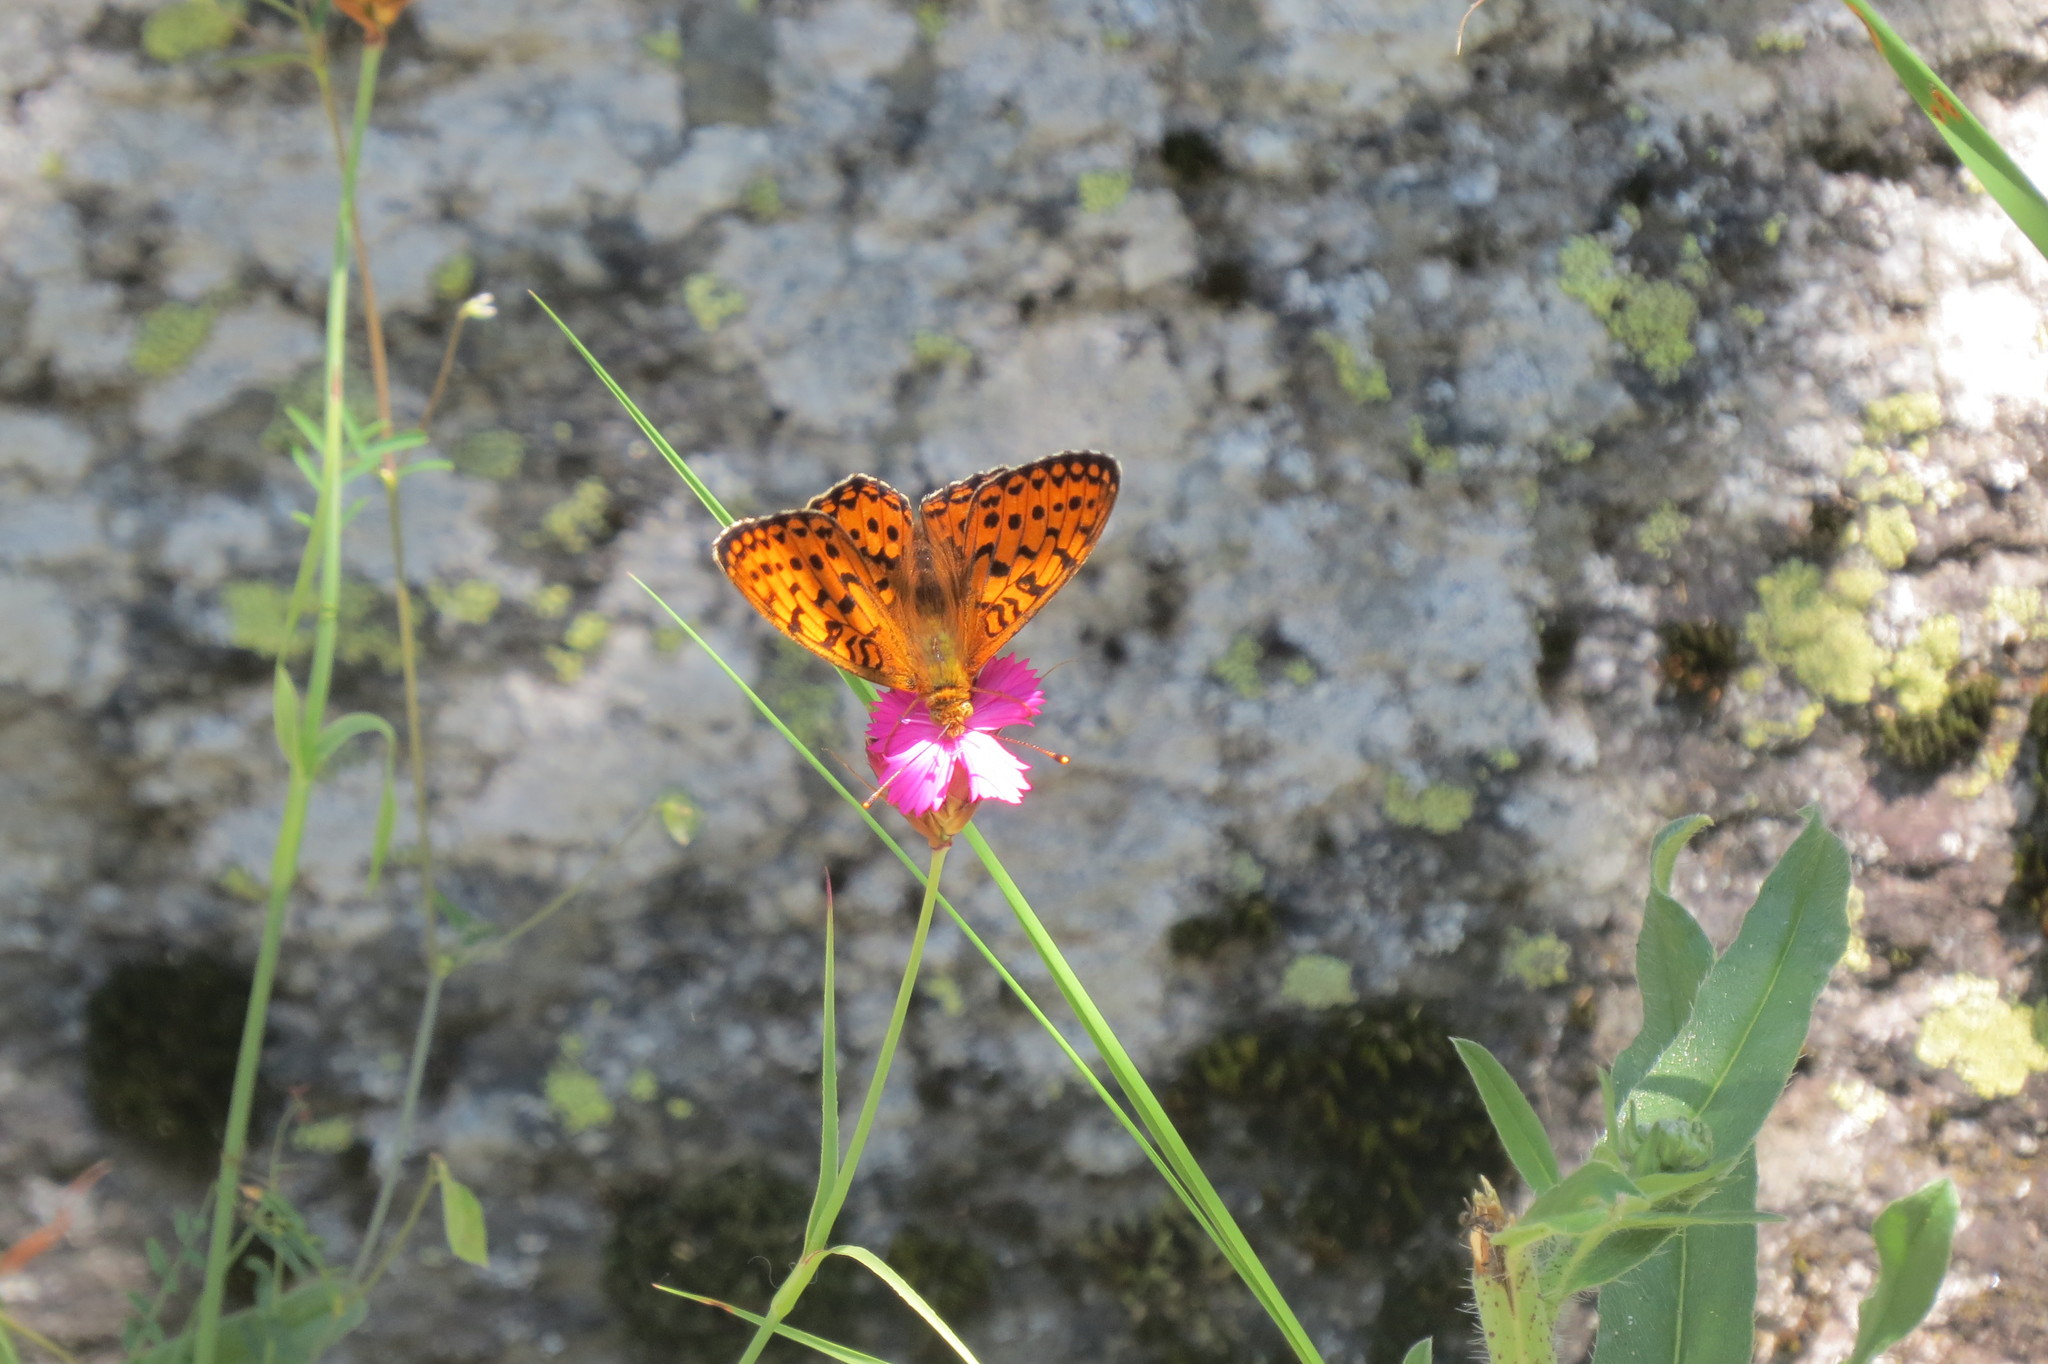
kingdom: Animalia
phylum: Arthropoda
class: Insecta
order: Lepidoptera
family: Nymphalidae
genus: Speyeria
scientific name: Speyeria aglaja
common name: Dark green fritillary
